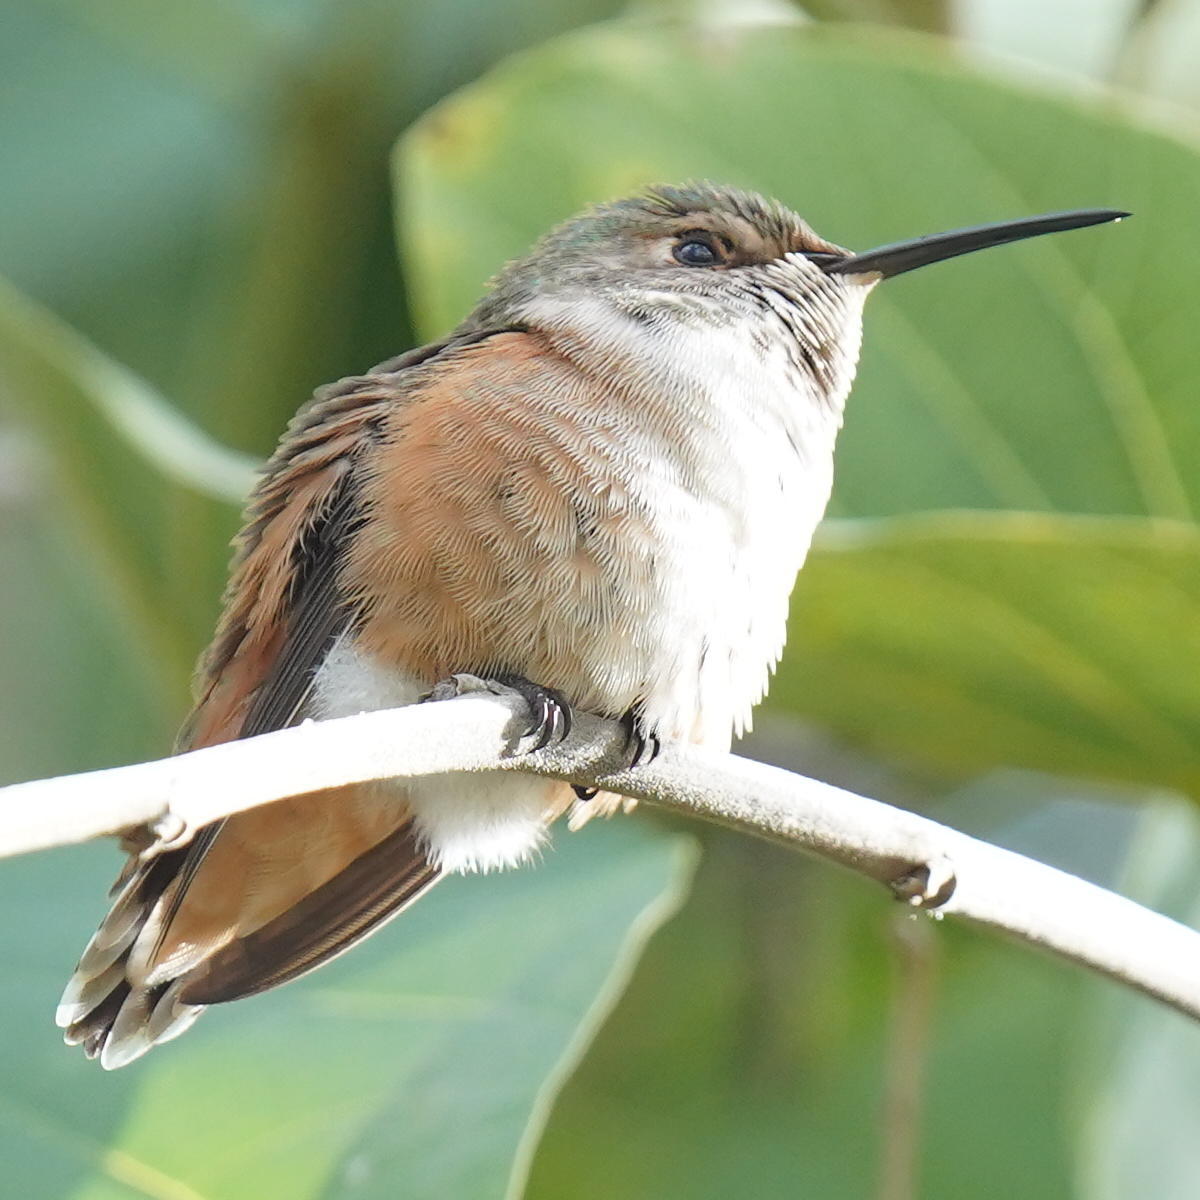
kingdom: Animalia
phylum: Chordata
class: Aves
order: Apodiformes
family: Trochilidae
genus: Selasphorus
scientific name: Selasphorus sasin
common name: Allen's hummingbird
